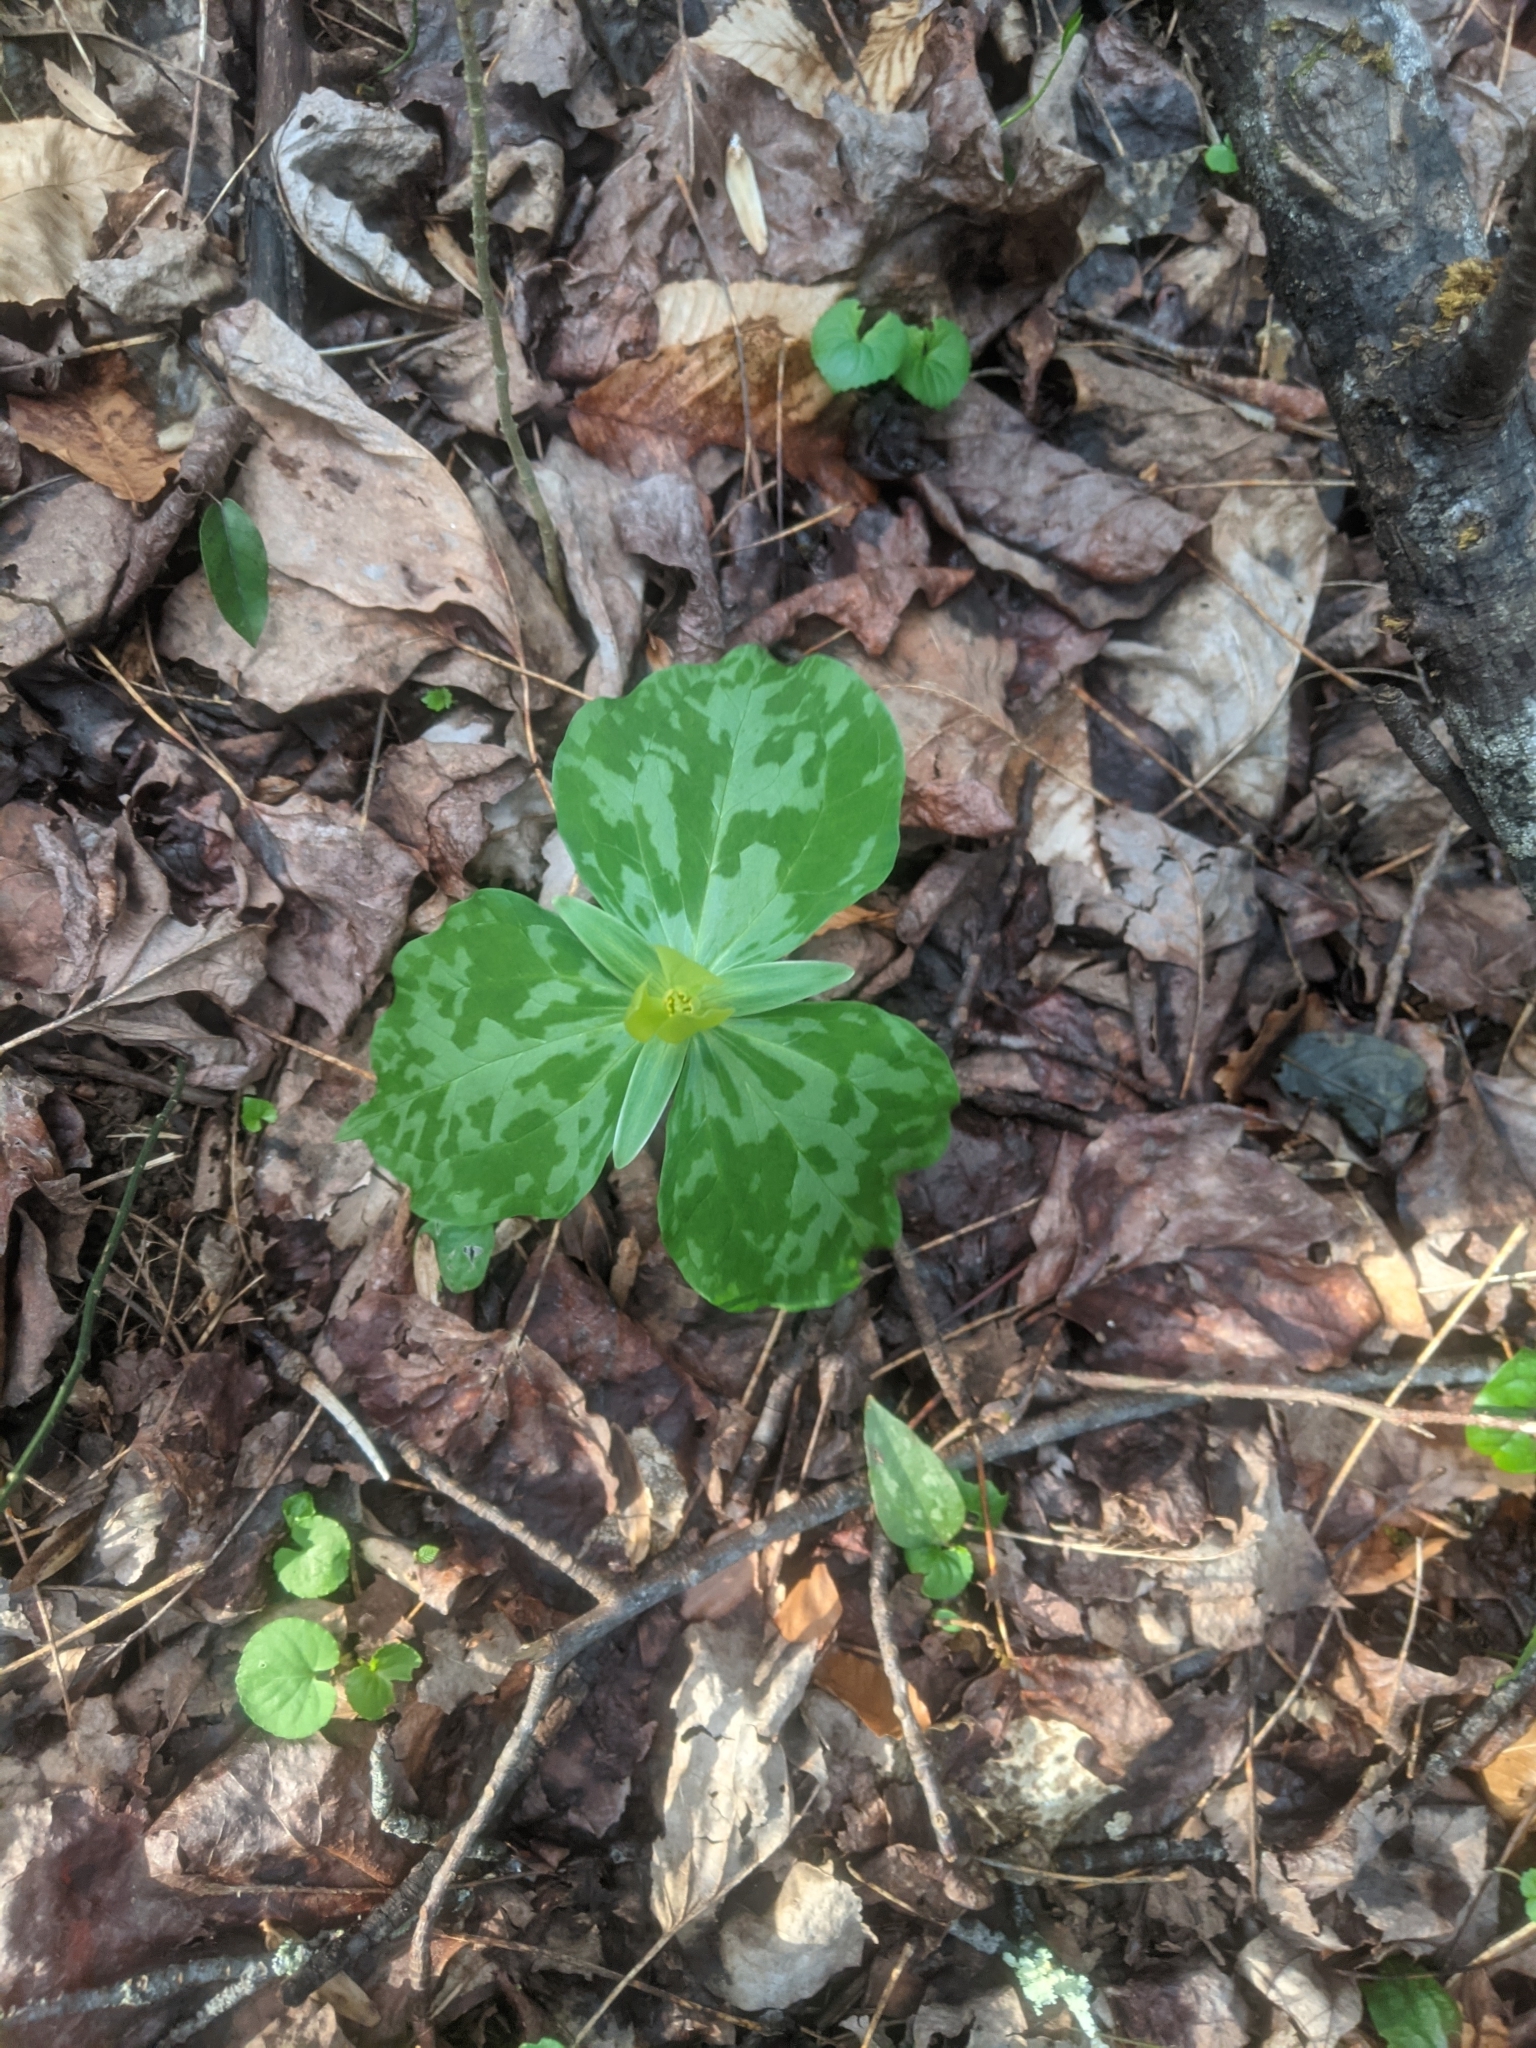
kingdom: Plantae
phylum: Tracheophyta
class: Liliopsida
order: Liliales
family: Melanthiaceae
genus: Trillium
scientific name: Trillium luteum
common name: Wax trillium
